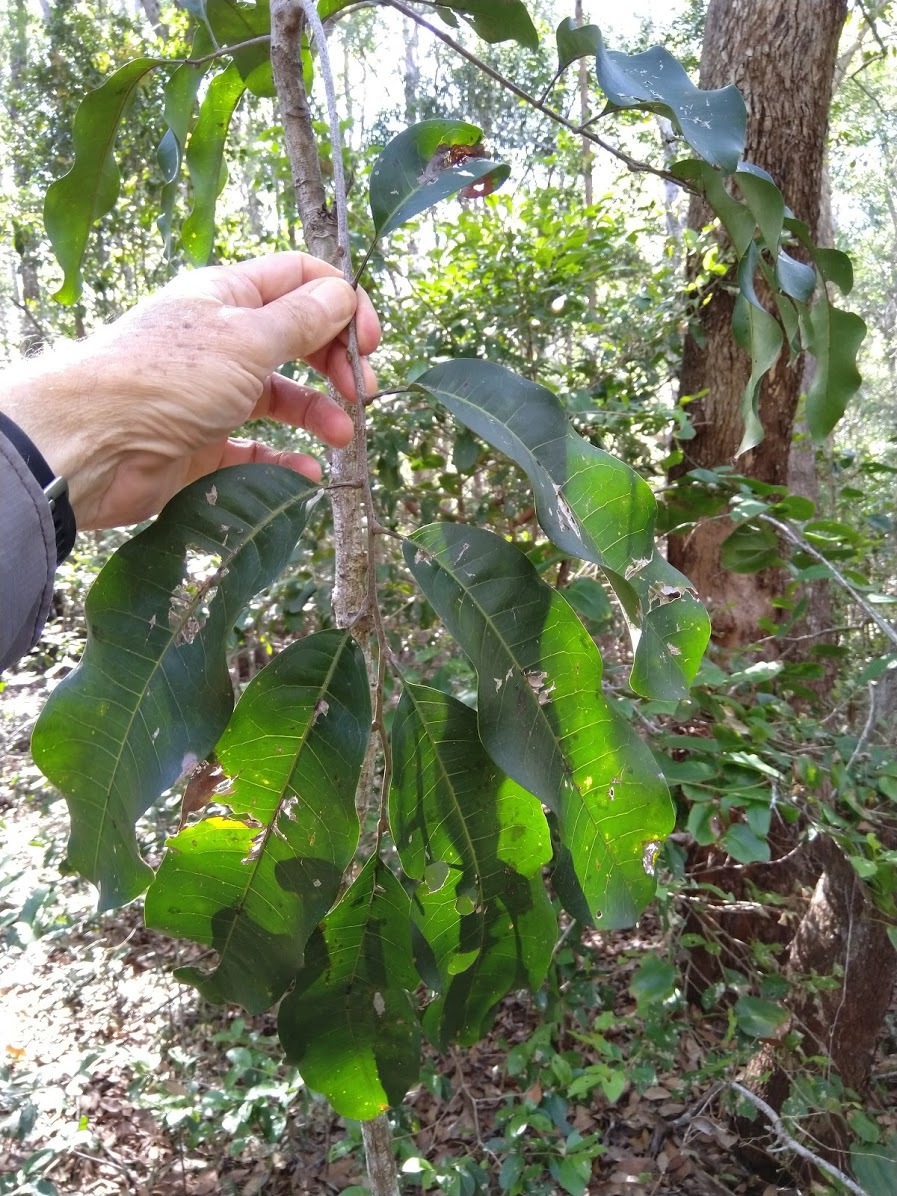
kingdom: Plantae
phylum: Tracheophyta
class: Magnoliopsida
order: Sapindales
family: Sapindaceae
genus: Cupaniopsis
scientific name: Cupaniopsis simulata
